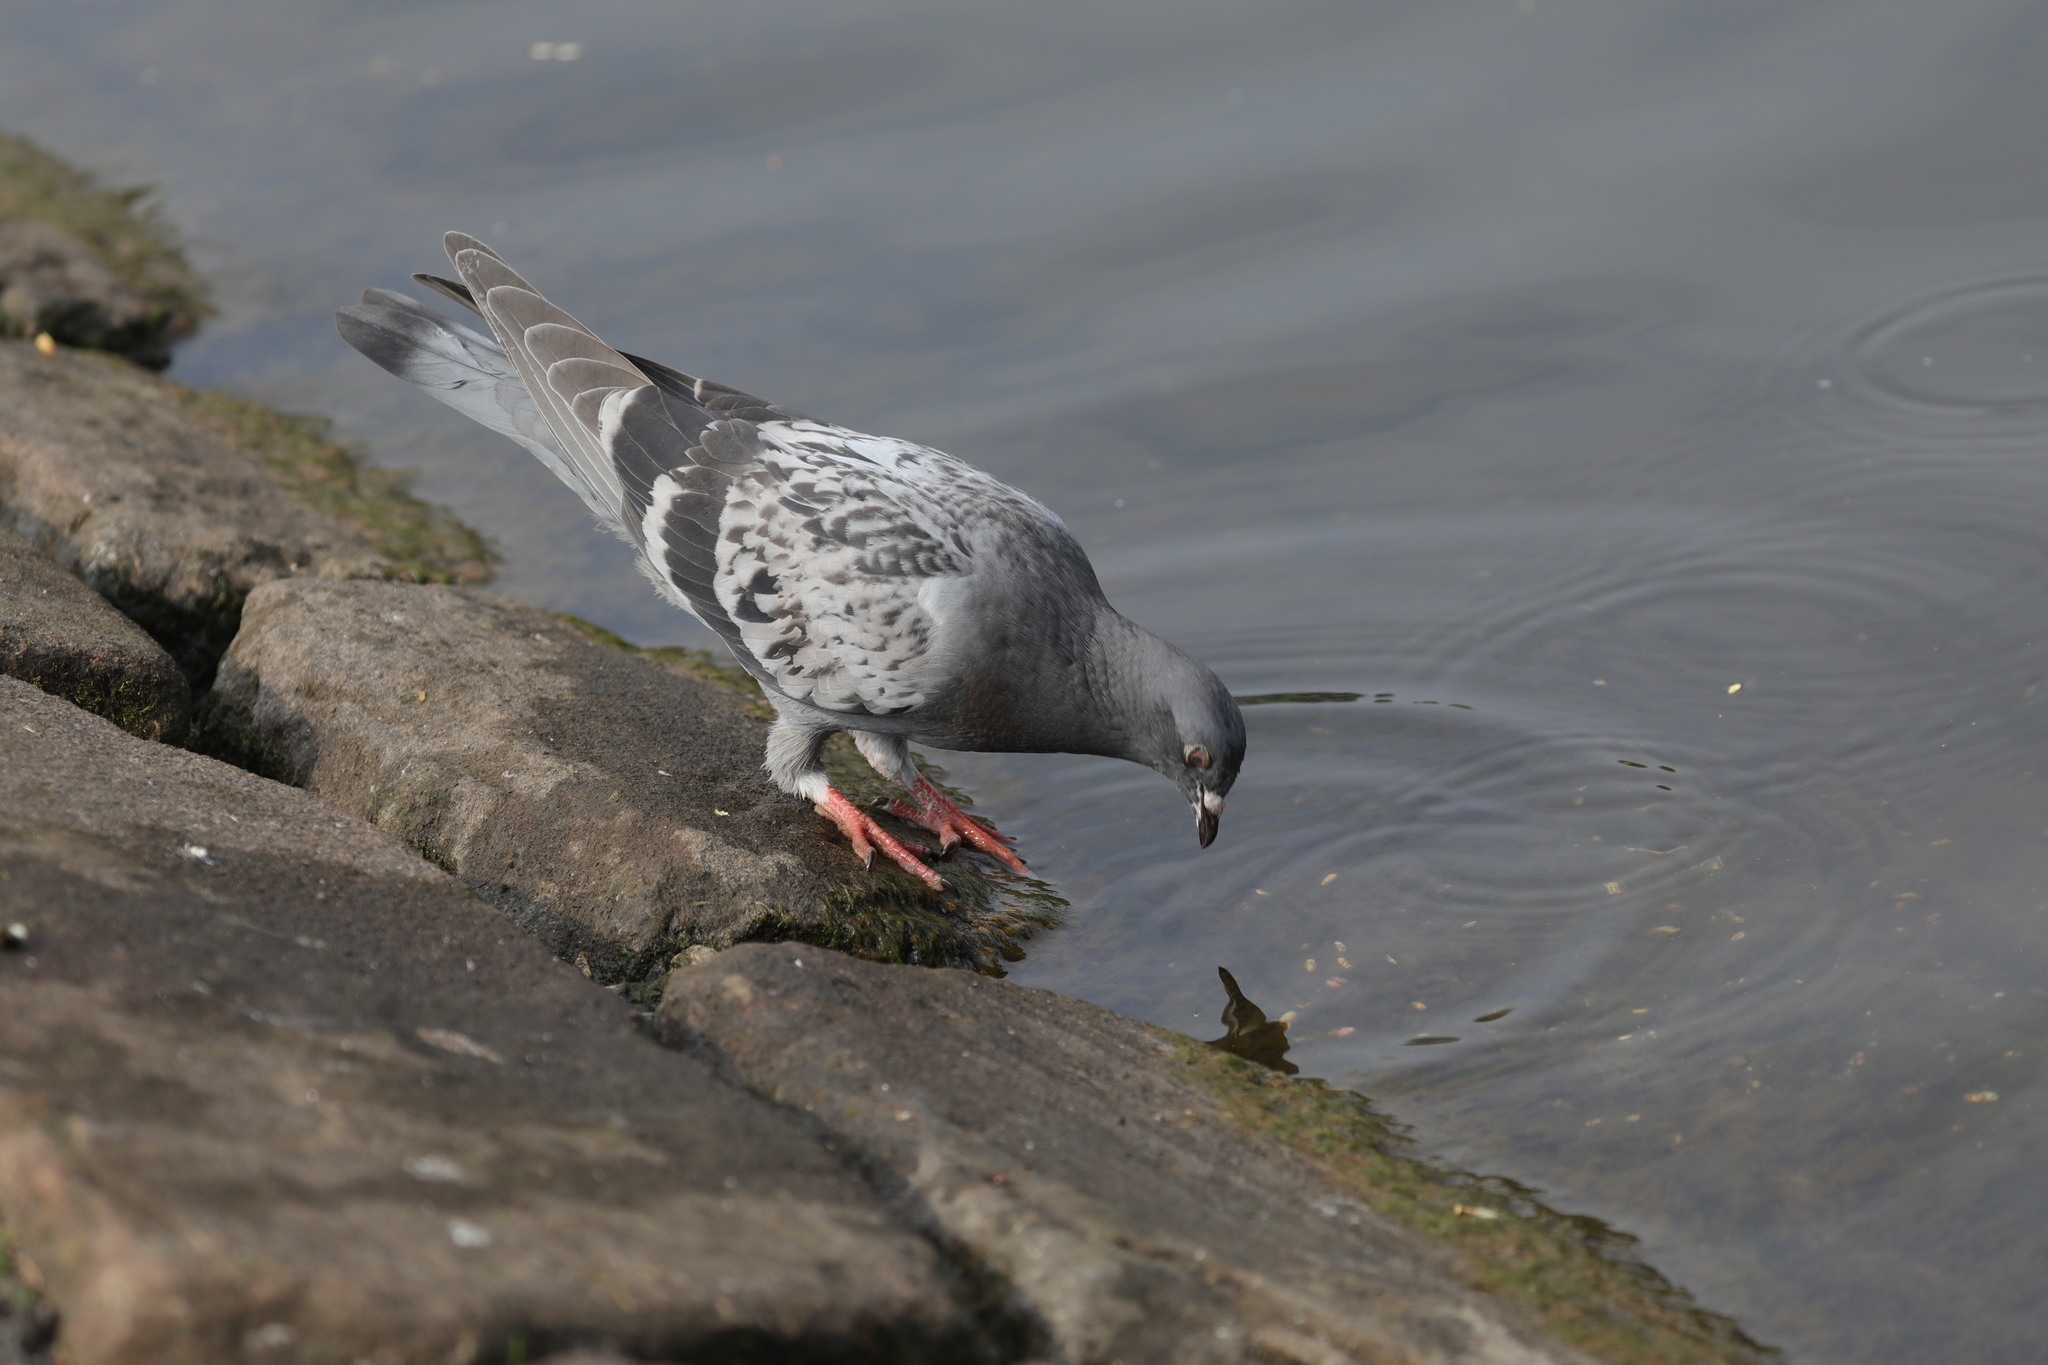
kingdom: Animalia
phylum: Chordata
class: Aves
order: Columbiformes
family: Columbidae
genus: Columba
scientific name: Columba livia
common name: Rock pigeon
